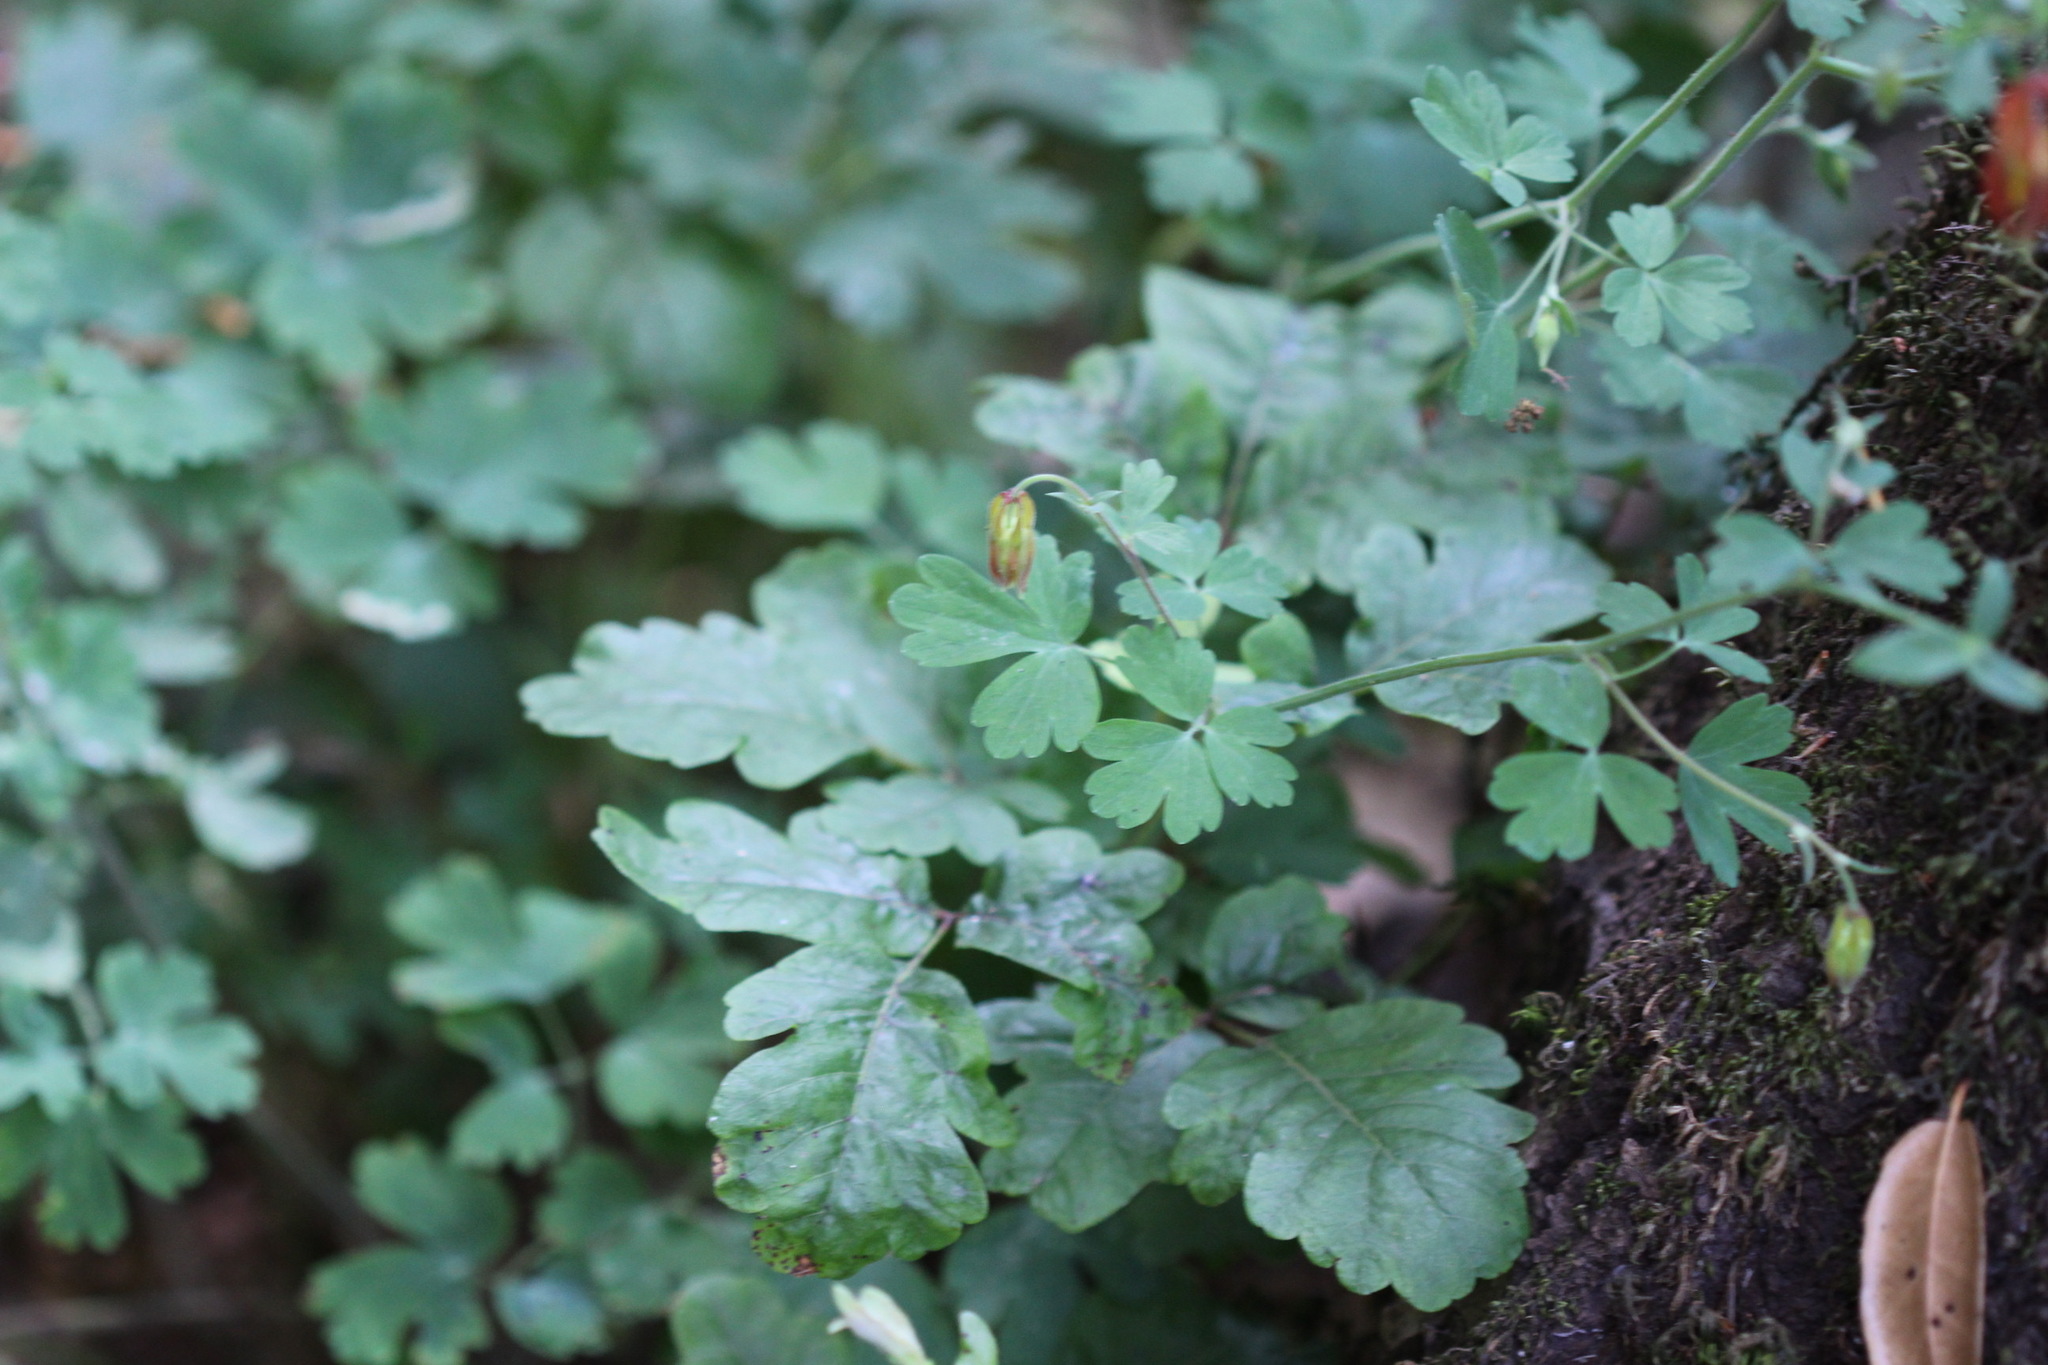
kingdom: Plantae
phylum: Tracheophyta
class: Magnoliopsida
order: Ranunculales
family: Ranunculaceae
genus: Aquilegia
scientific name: Aquilegia formosa
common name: Sitka columbine
